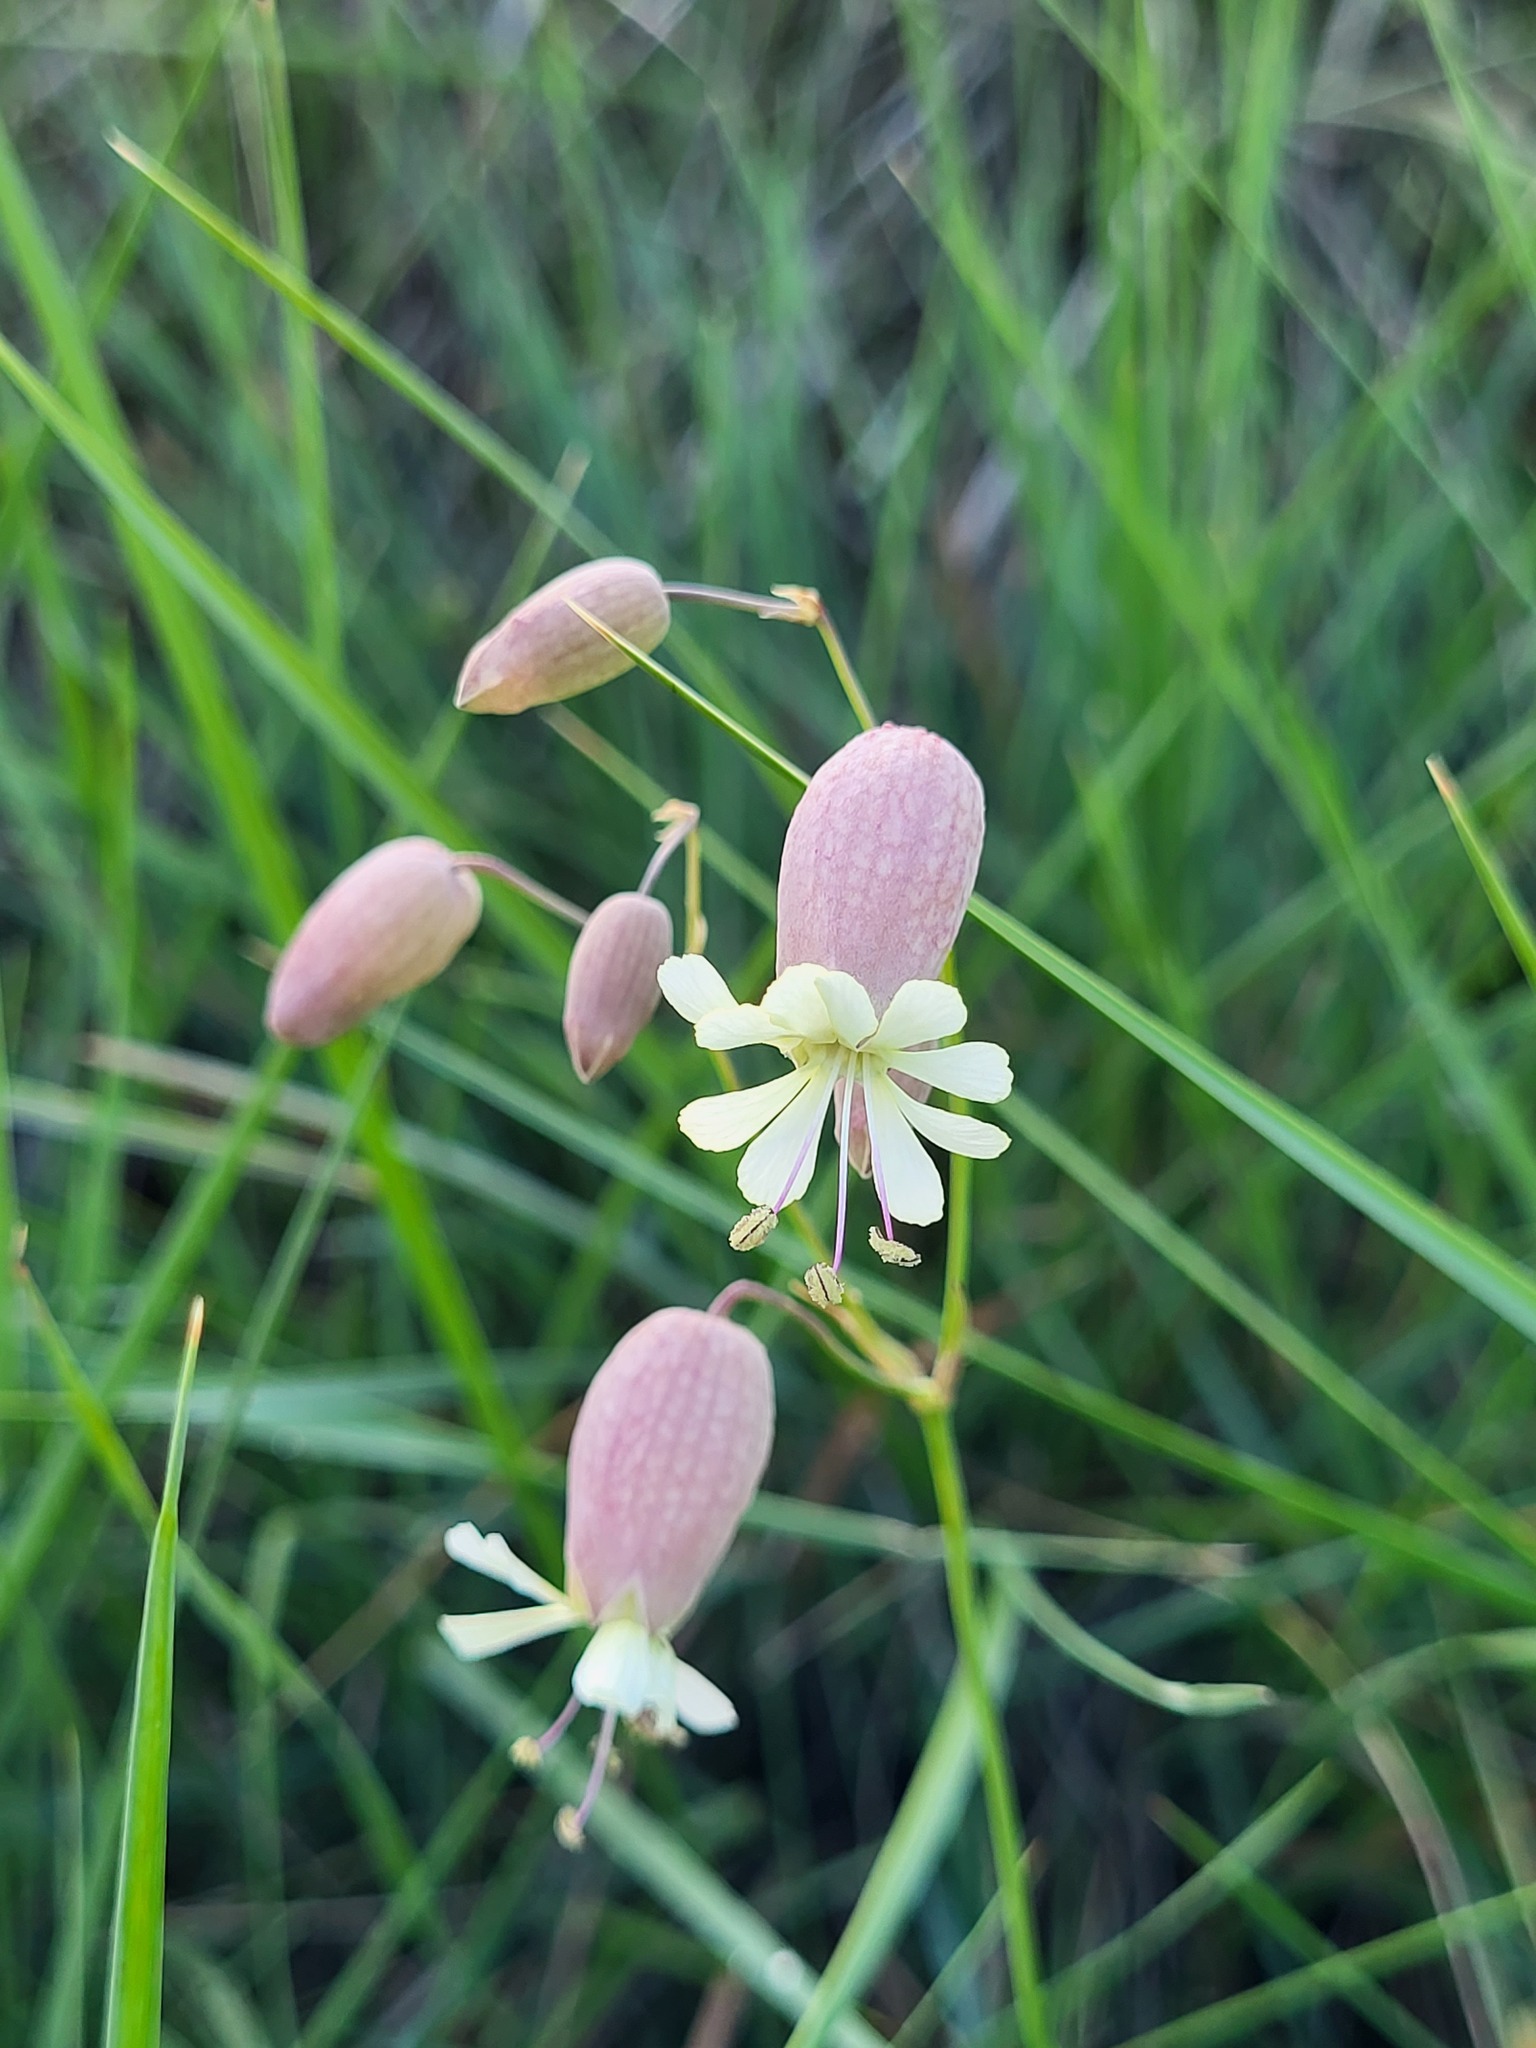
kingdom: Plantae
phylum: Tracheophyta
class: Magnoliopsida
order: Caryophyllales
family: Caryophyllaceae
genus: Silene
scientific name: Silene vulgaris
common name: Bladder campion
